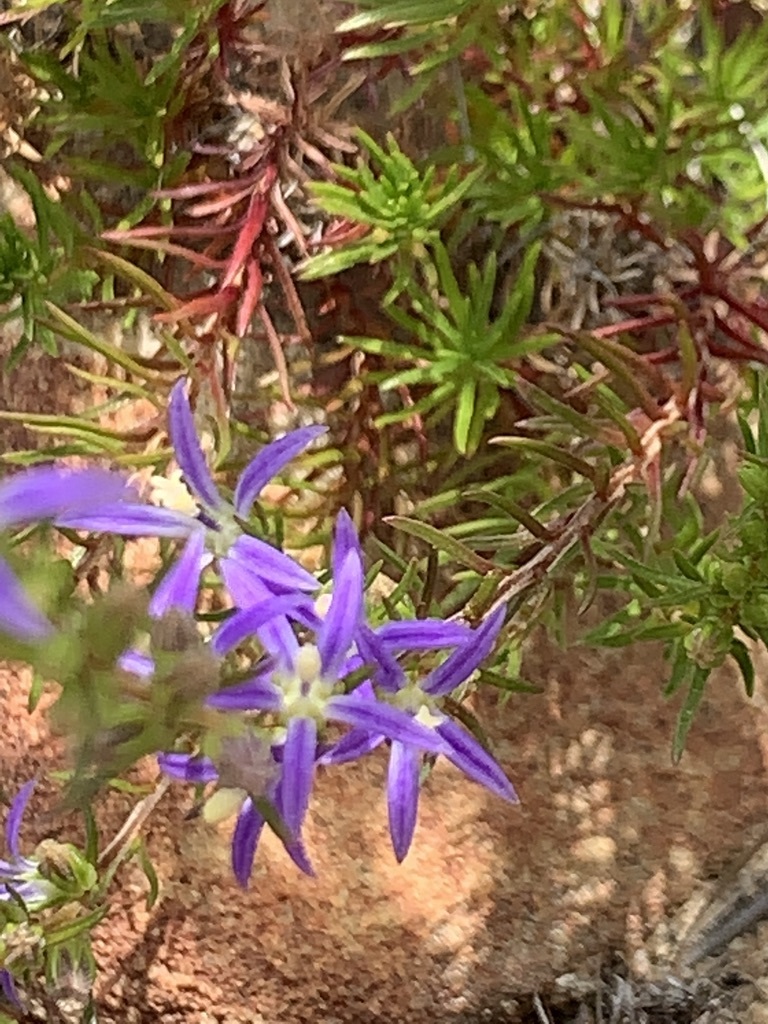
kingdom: Plantae
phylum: Tracheophyta
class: Magnoliopsida
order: Asterales
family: Campanulaceae
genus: Wahlenbergia
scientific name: Wahlenbergia subulata
